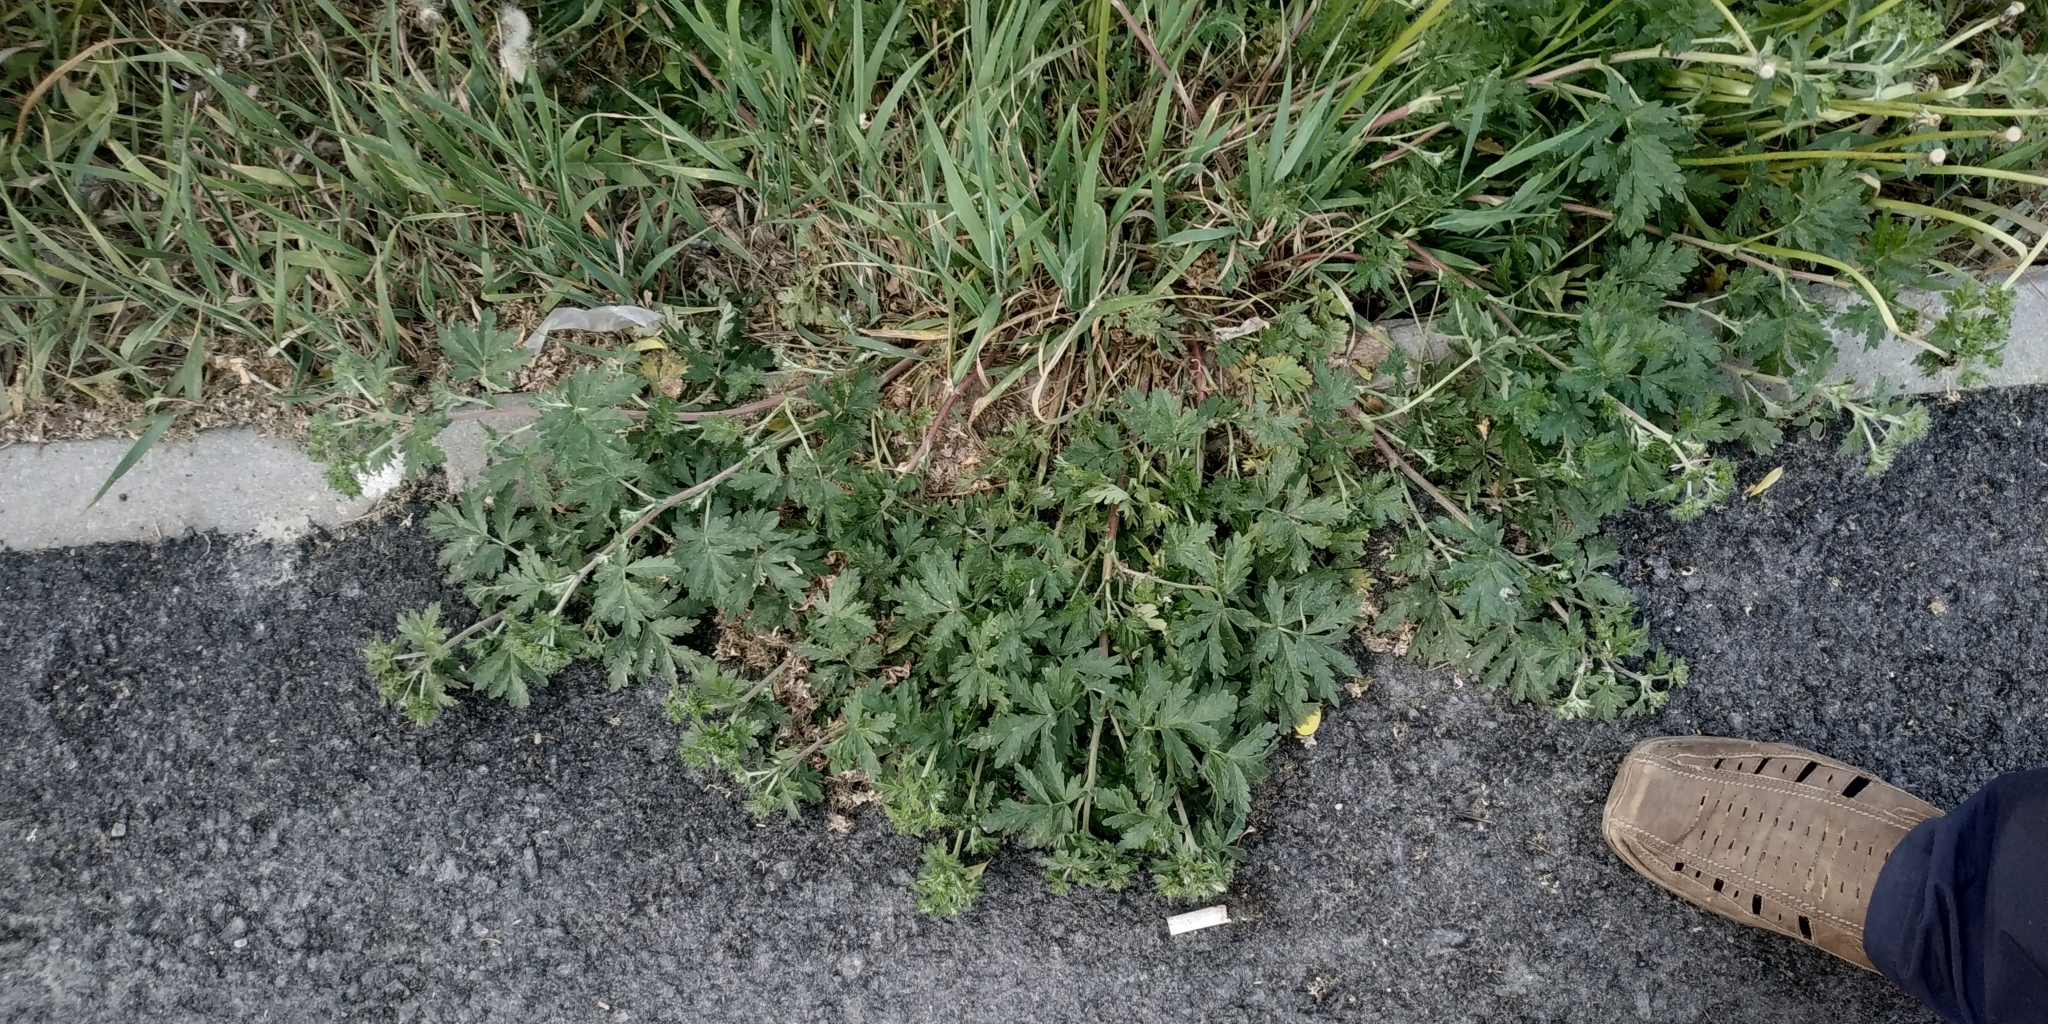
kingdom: Plantae
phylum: Tracheophyta
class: Magnoliopsida
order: Rosales
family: Rosaceae
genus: Potentilla
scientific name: Potentilla tobolensis
